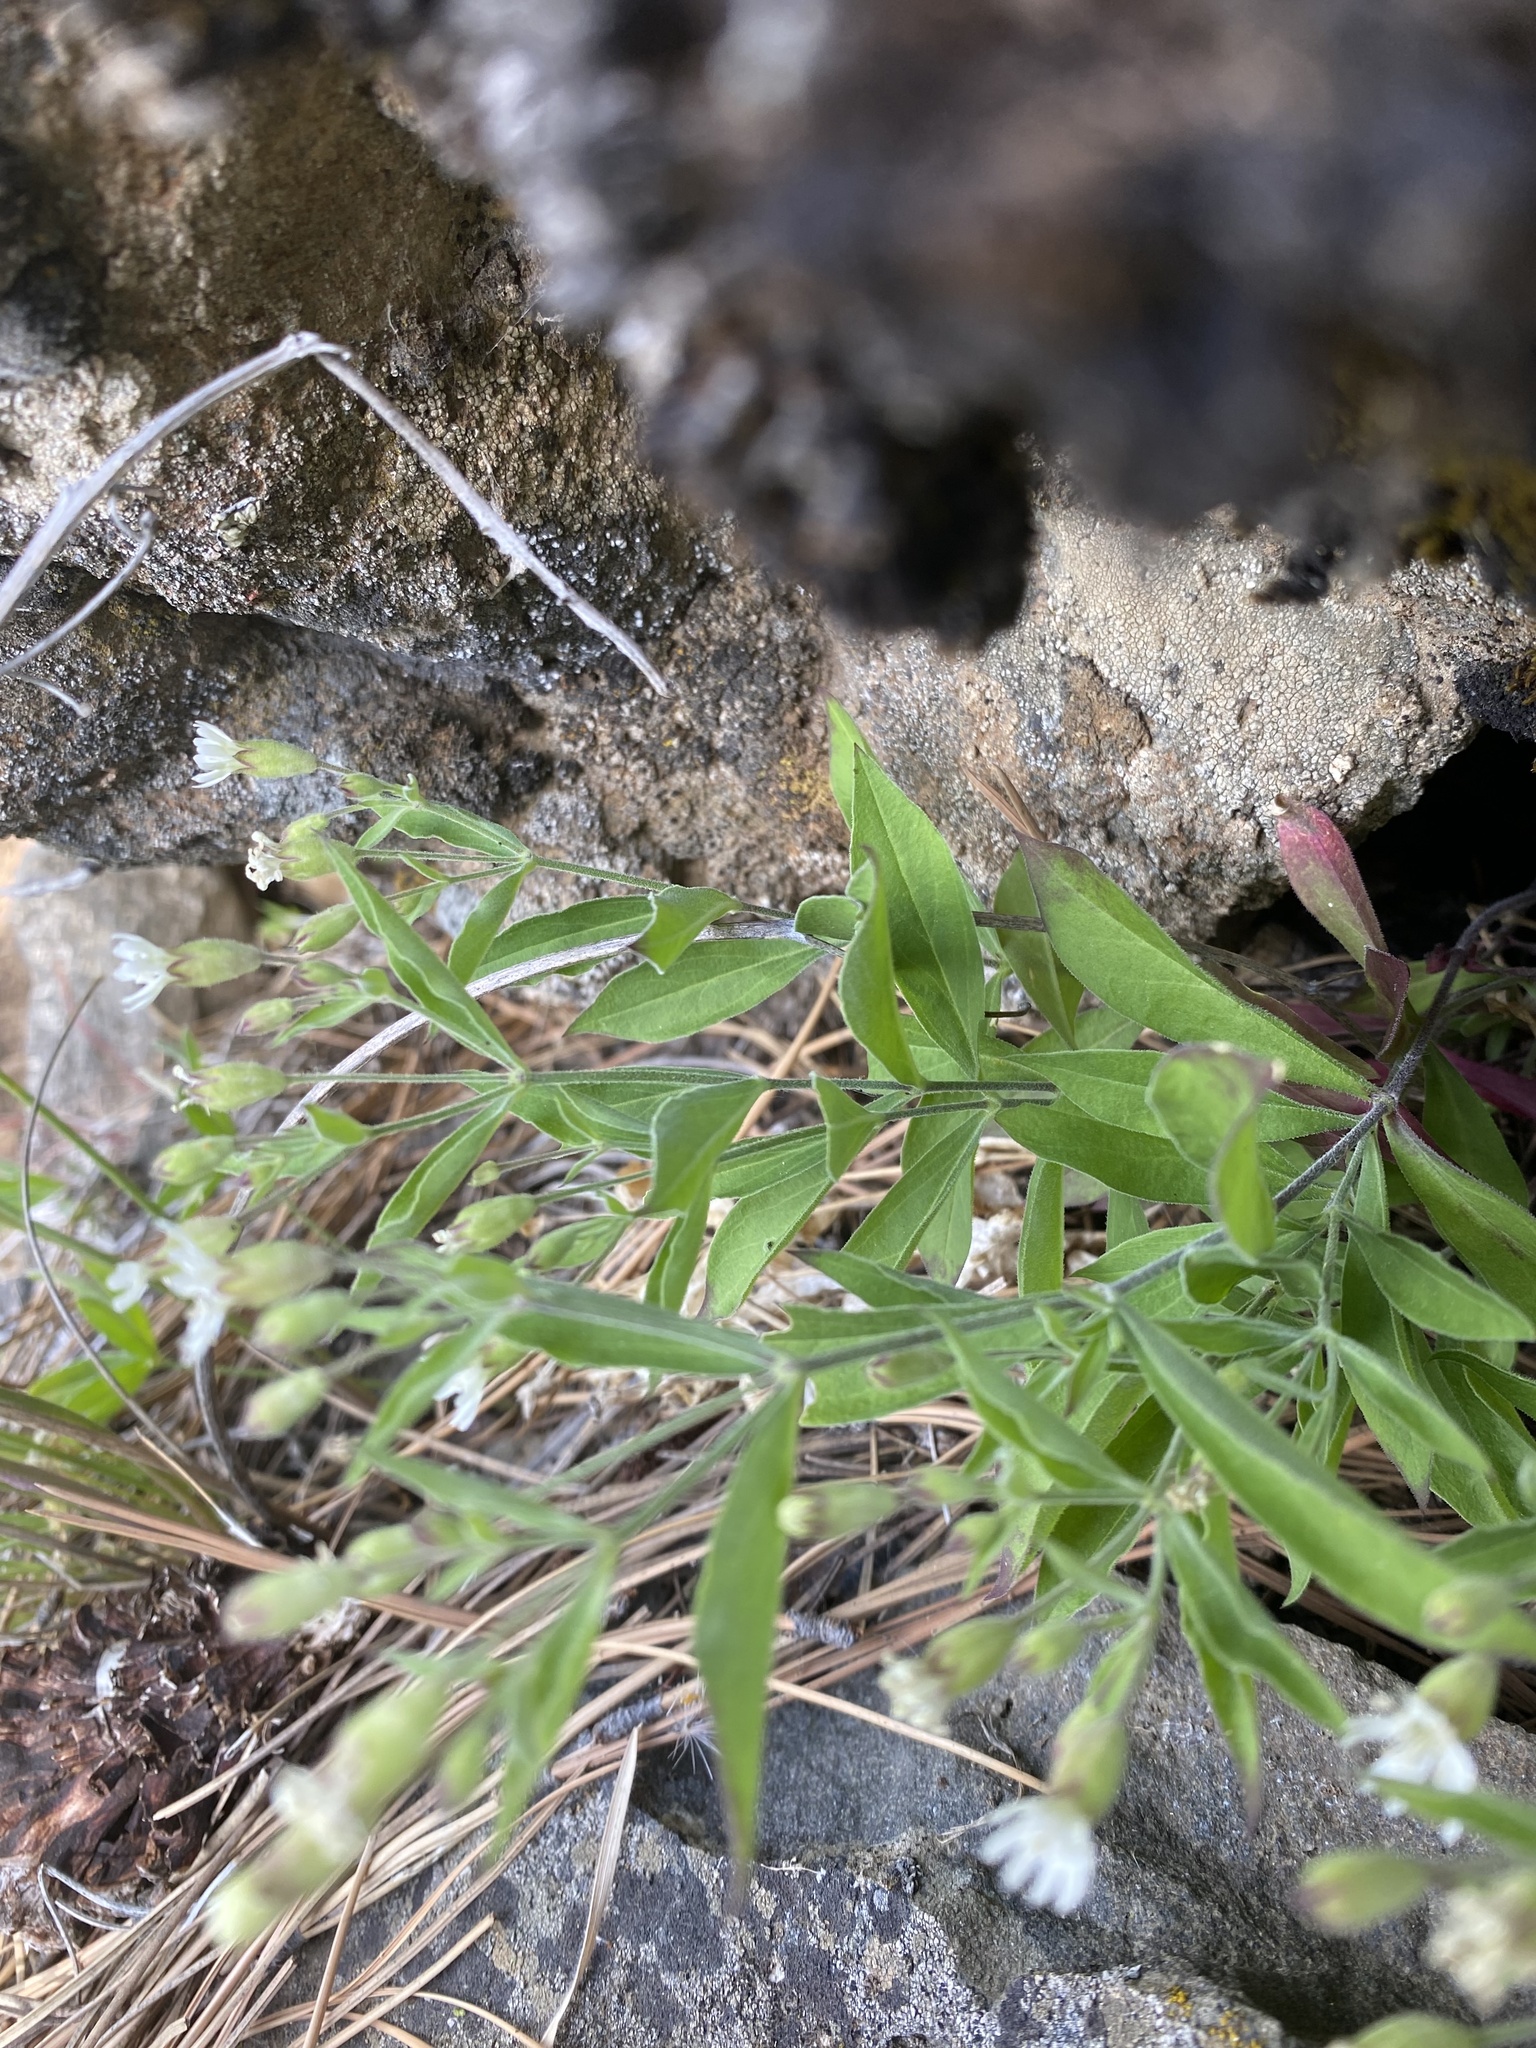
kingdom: Plantae
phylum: Tracheophyta
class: Magnoliopsida
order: Caryophyllales
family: Caryophyllaceae
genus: Silene
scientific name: Silene menziesii
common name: Menzies's catchfly
